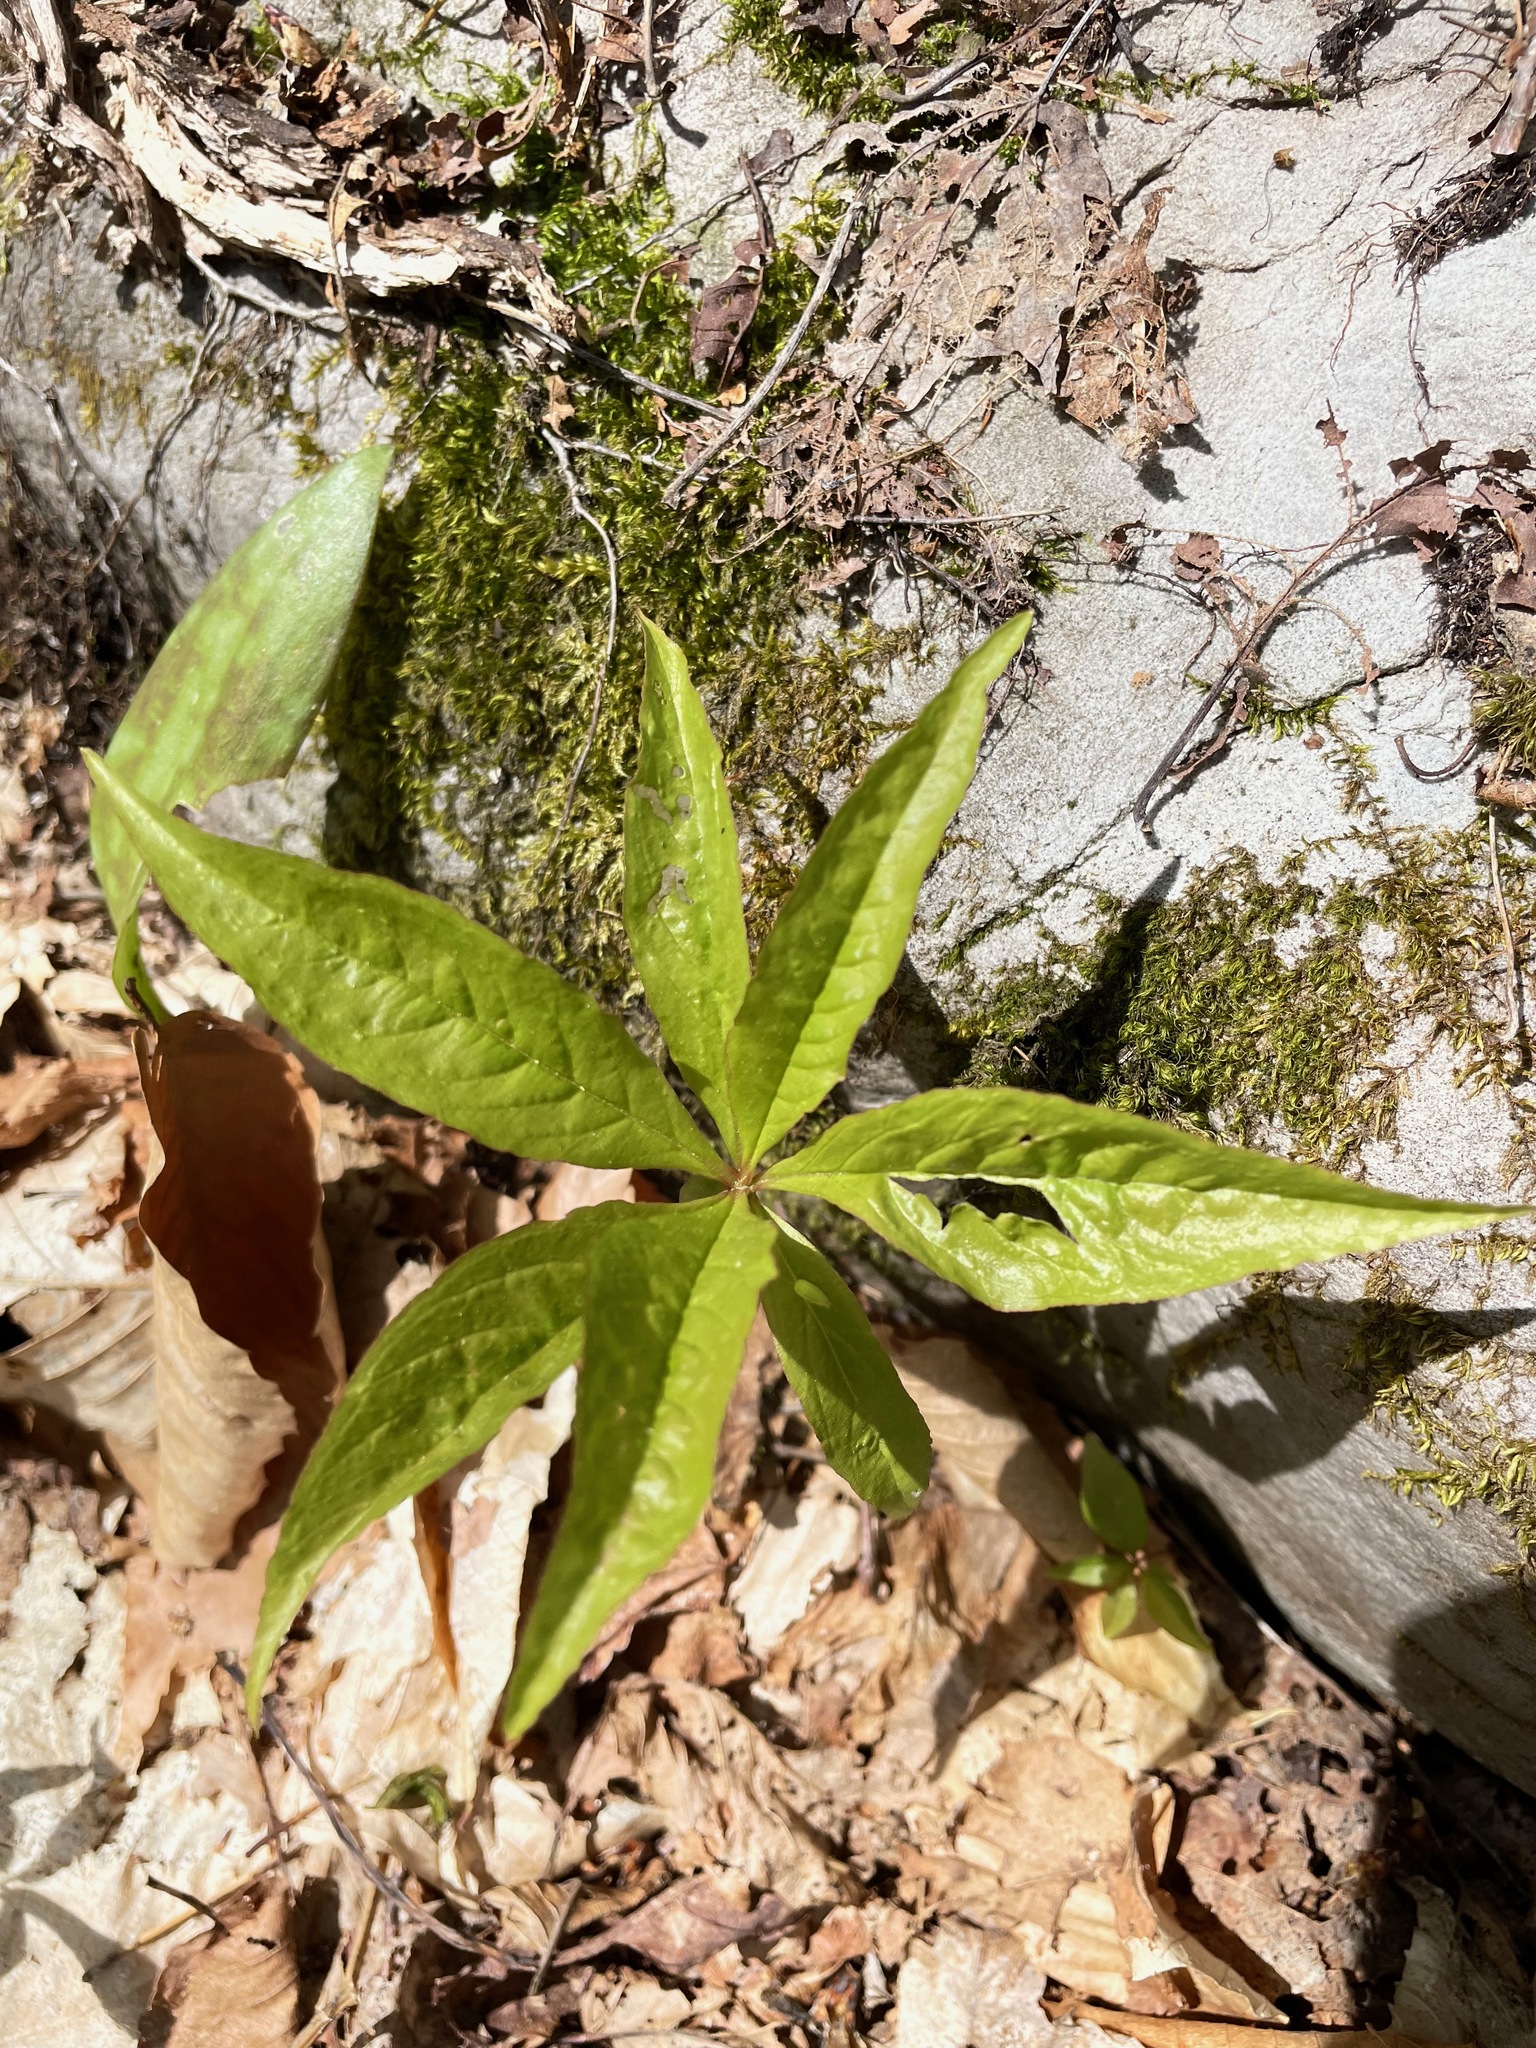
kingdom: Plantae
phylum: Tracheophyta
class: Magnoliopsida
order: Ericales
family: Primulaceae
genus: Lysimachia
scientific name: Lysimachia borealis
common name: American starflower
